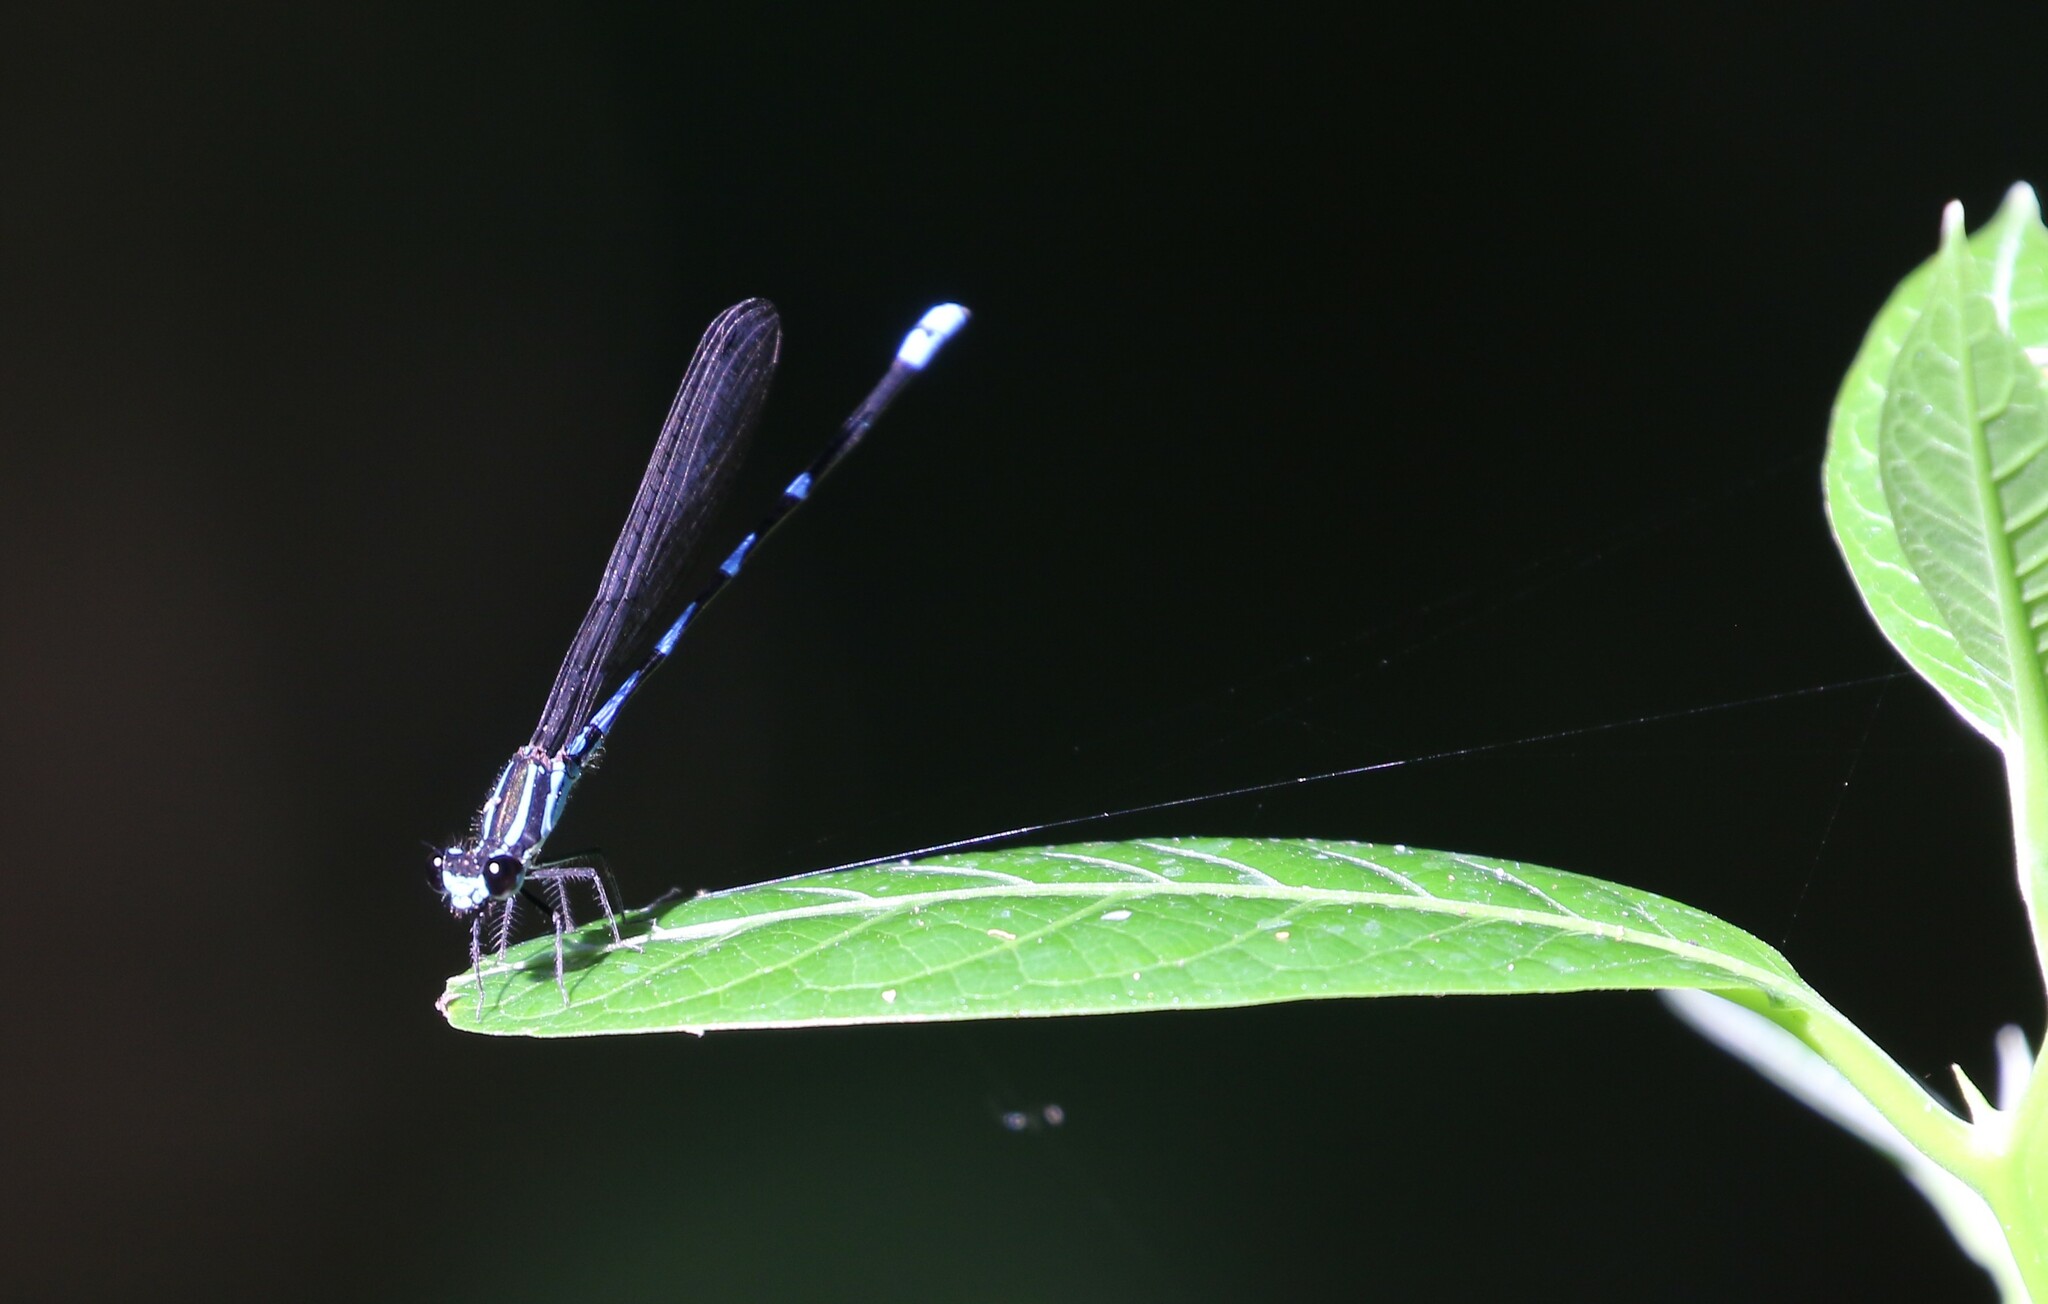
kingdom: Animalia
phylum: Arthropoda
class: Insecta
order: Odonata
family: Coenagrionidae
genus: Argia
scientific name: Argia adamsi
